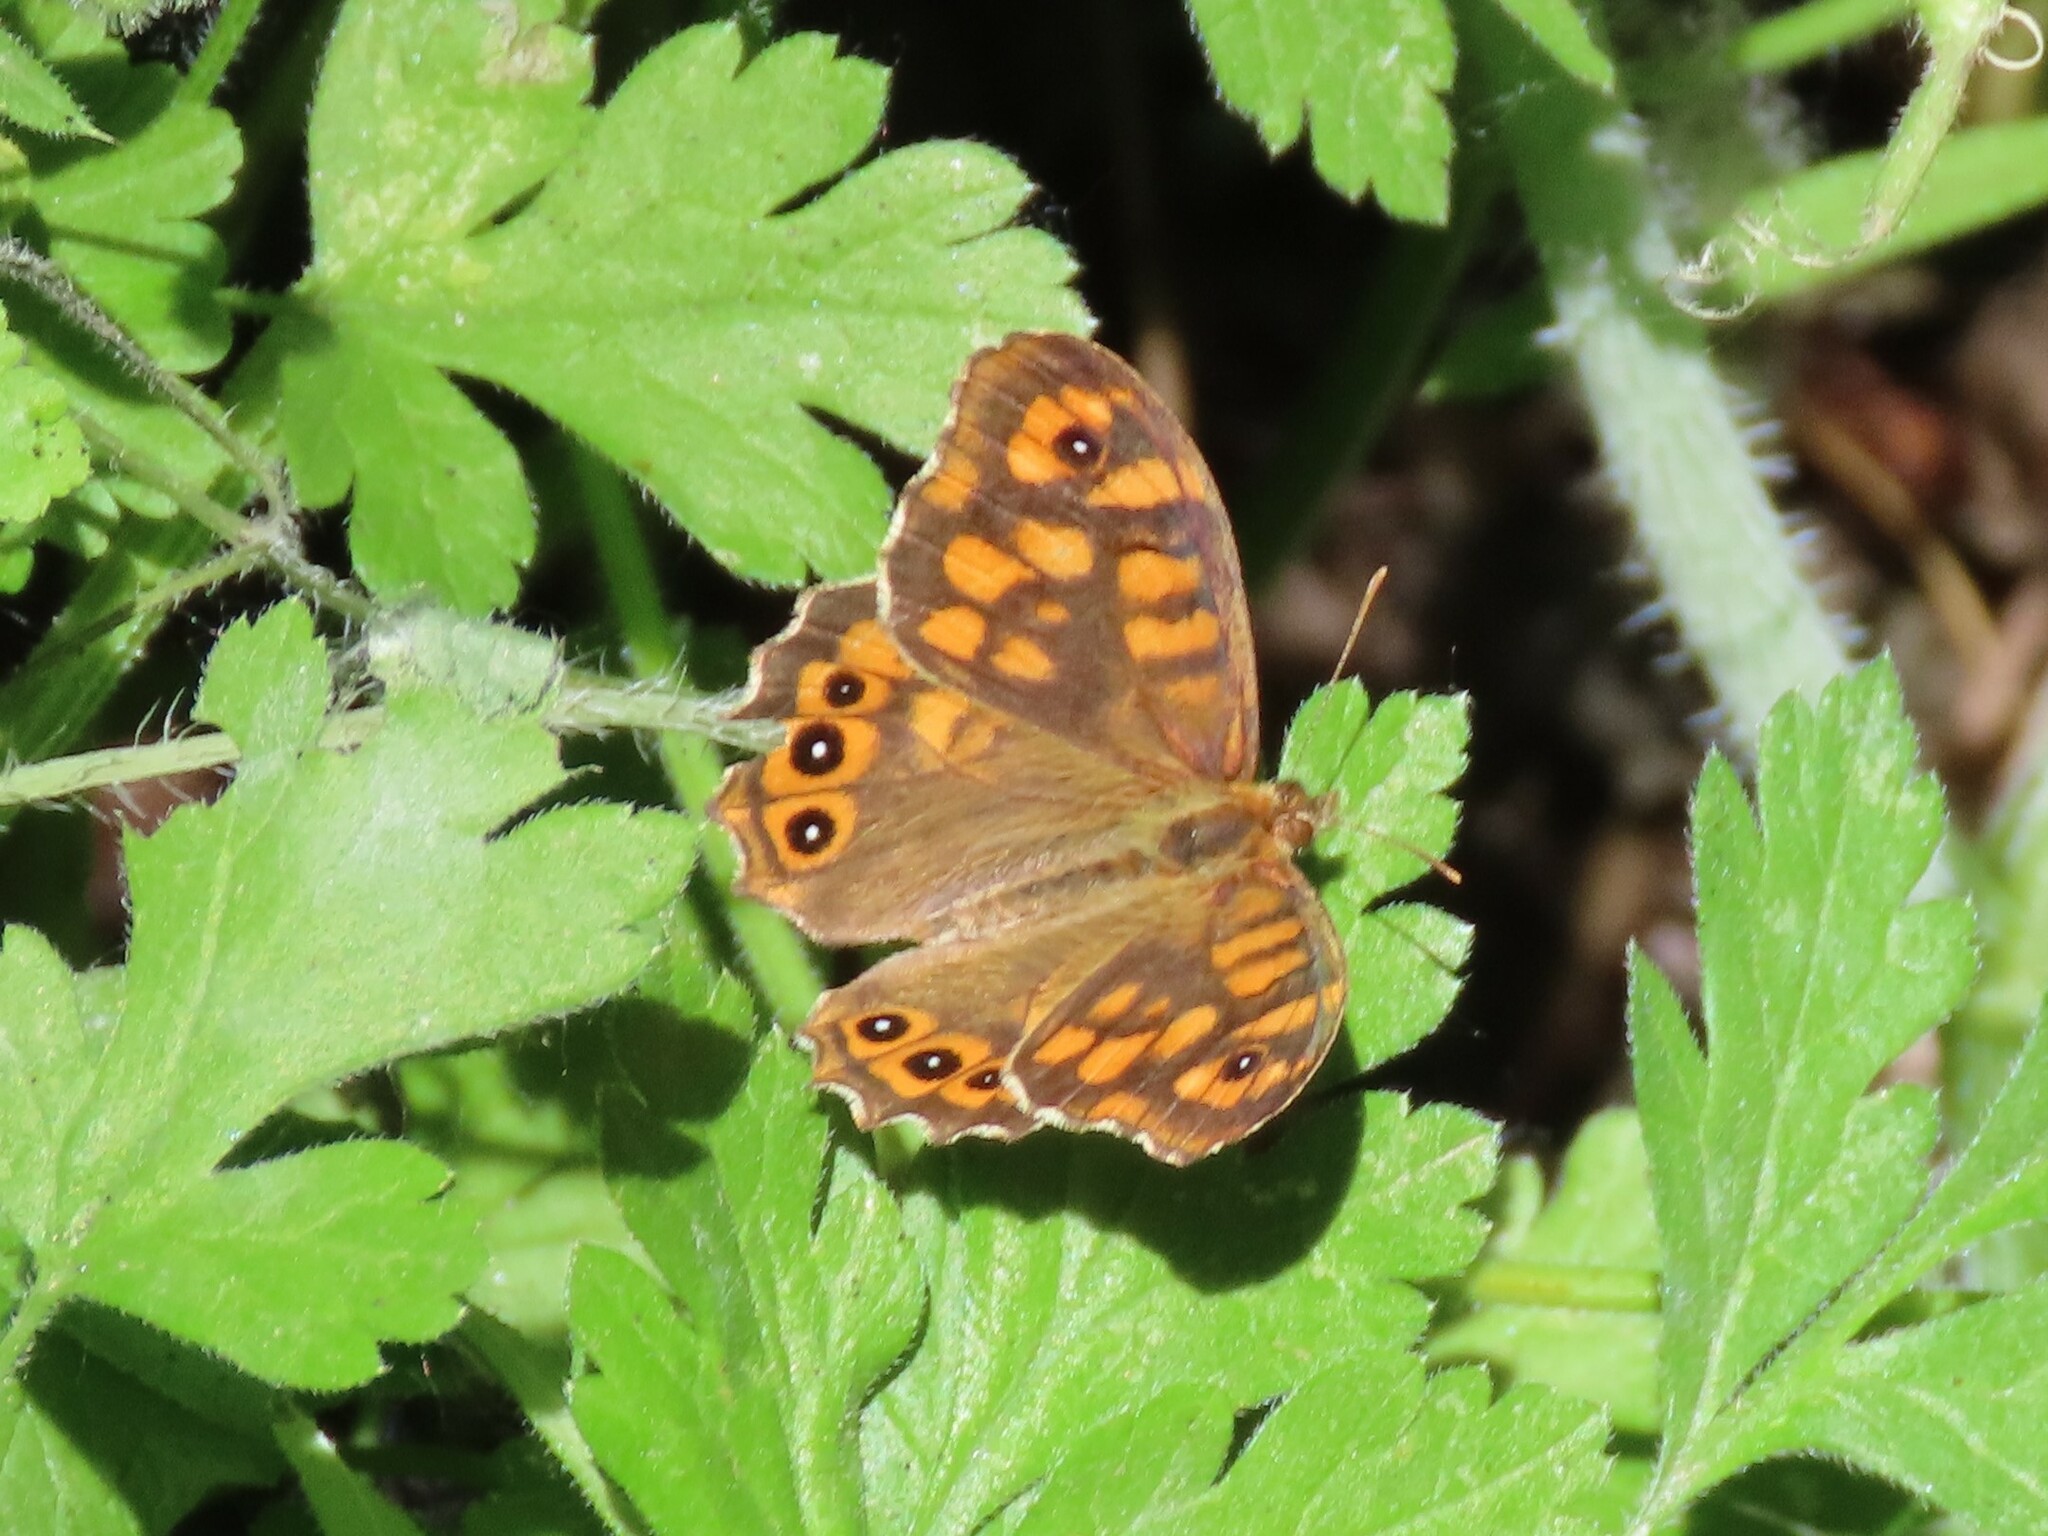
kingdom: Animalia
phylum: Arthropoda
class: Insecta
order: Lepidoptera
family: Nymphalidae
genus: Pararge
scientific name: Pararge aegeria
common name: Speckled wood
